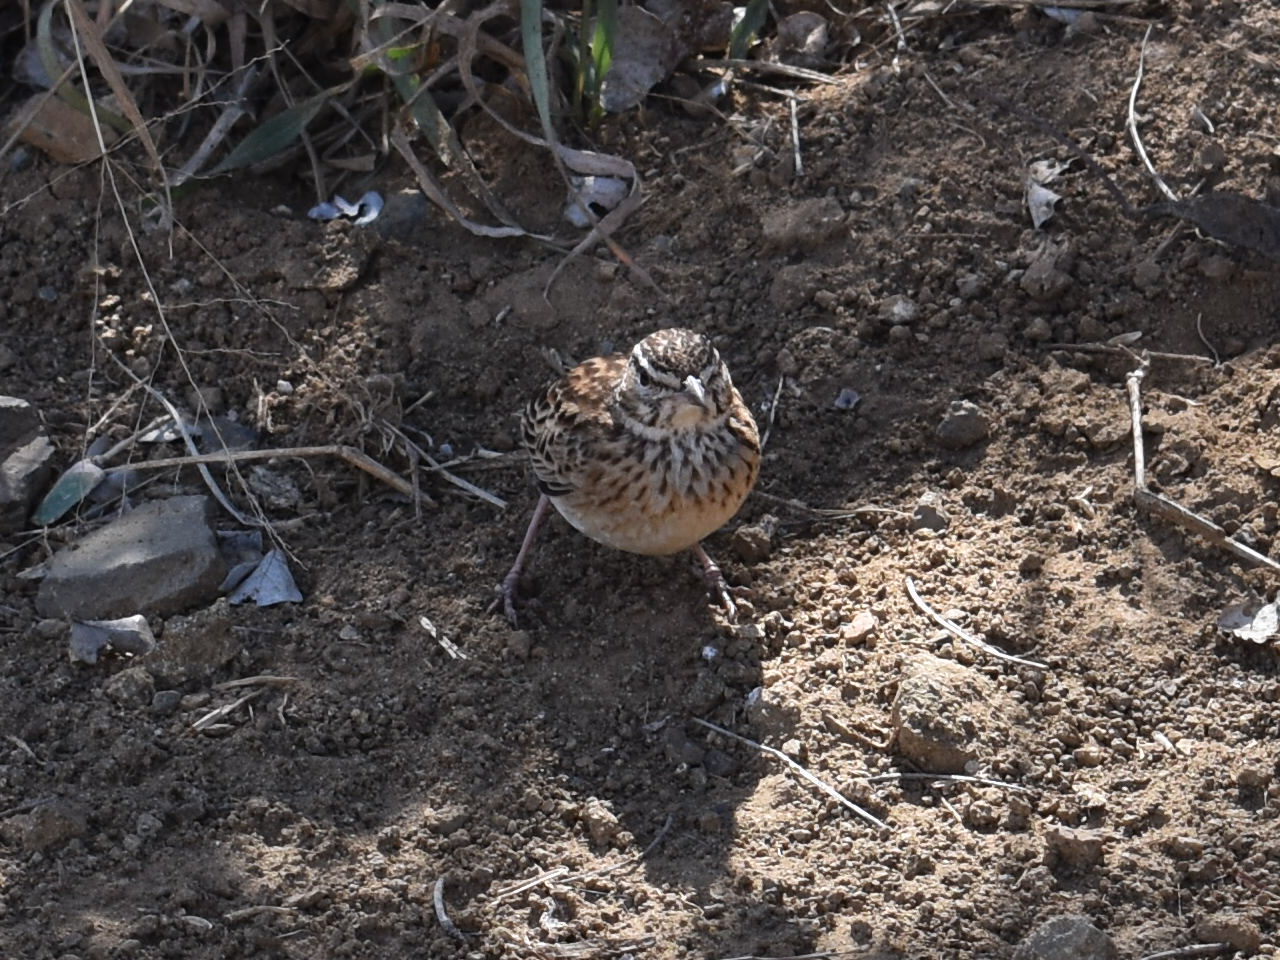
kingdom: Animalia
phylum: Chordata
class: Aves
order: Passeriformes
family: Alaudidae
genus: Calendulauda
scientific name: Calendulauda sabota
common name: Sabota lark
